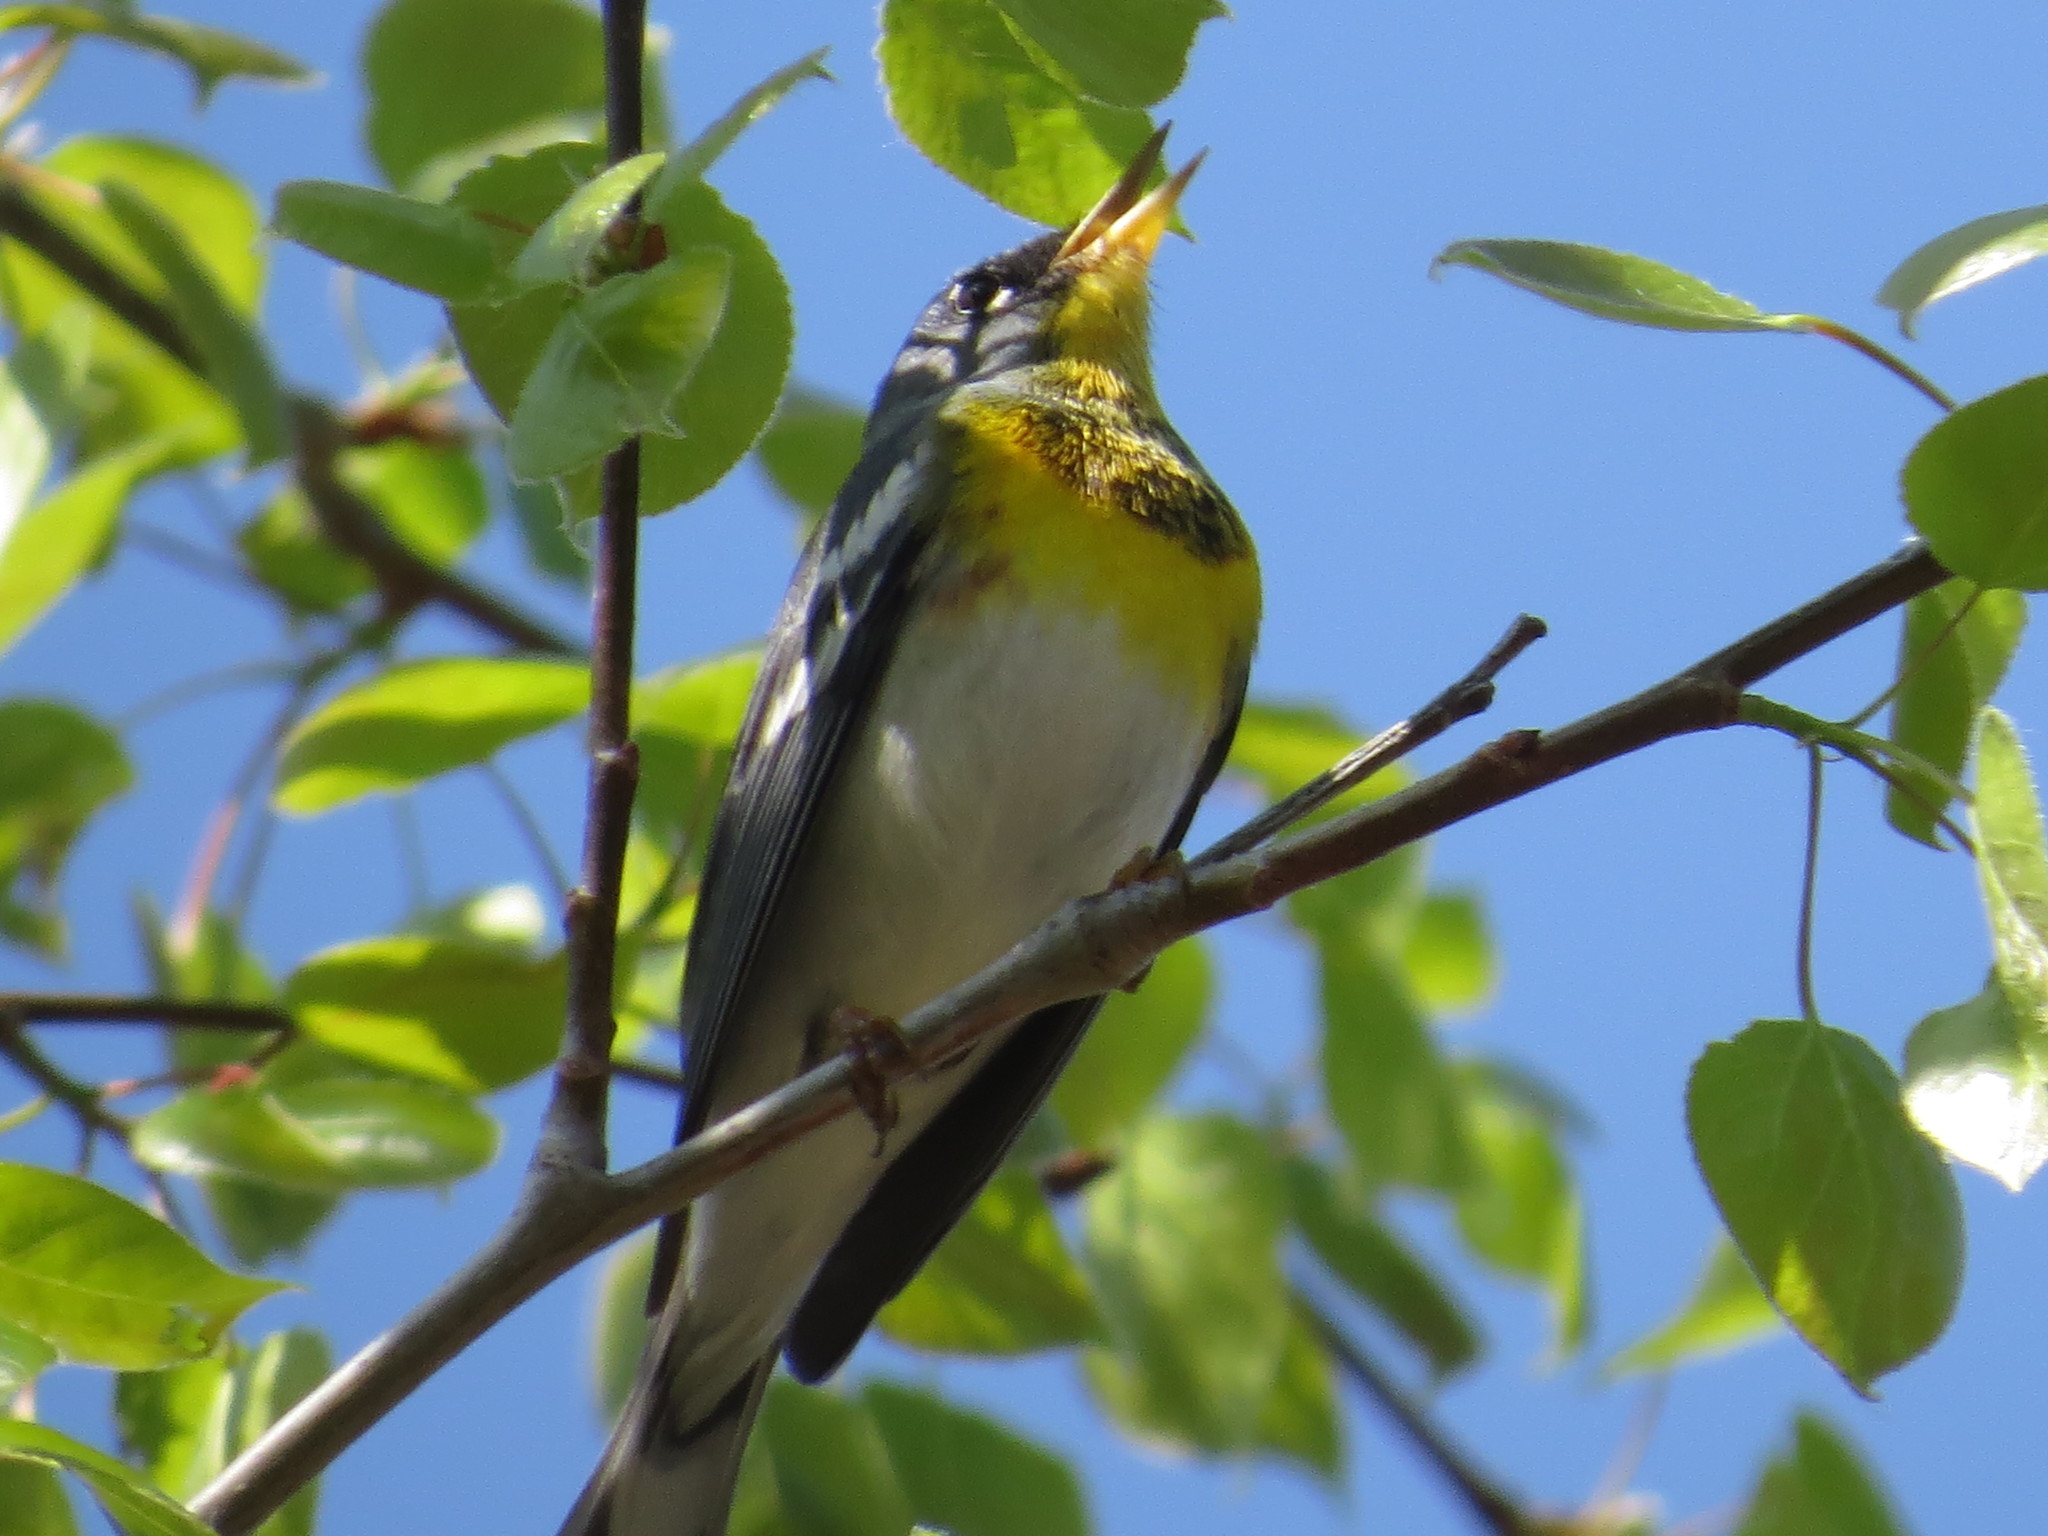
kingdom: Animalia
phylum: Chordata
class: Aves
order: Passeriformes
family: Parulidae
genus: Setophaga
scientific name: Setophaga americana
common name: Northern parula
